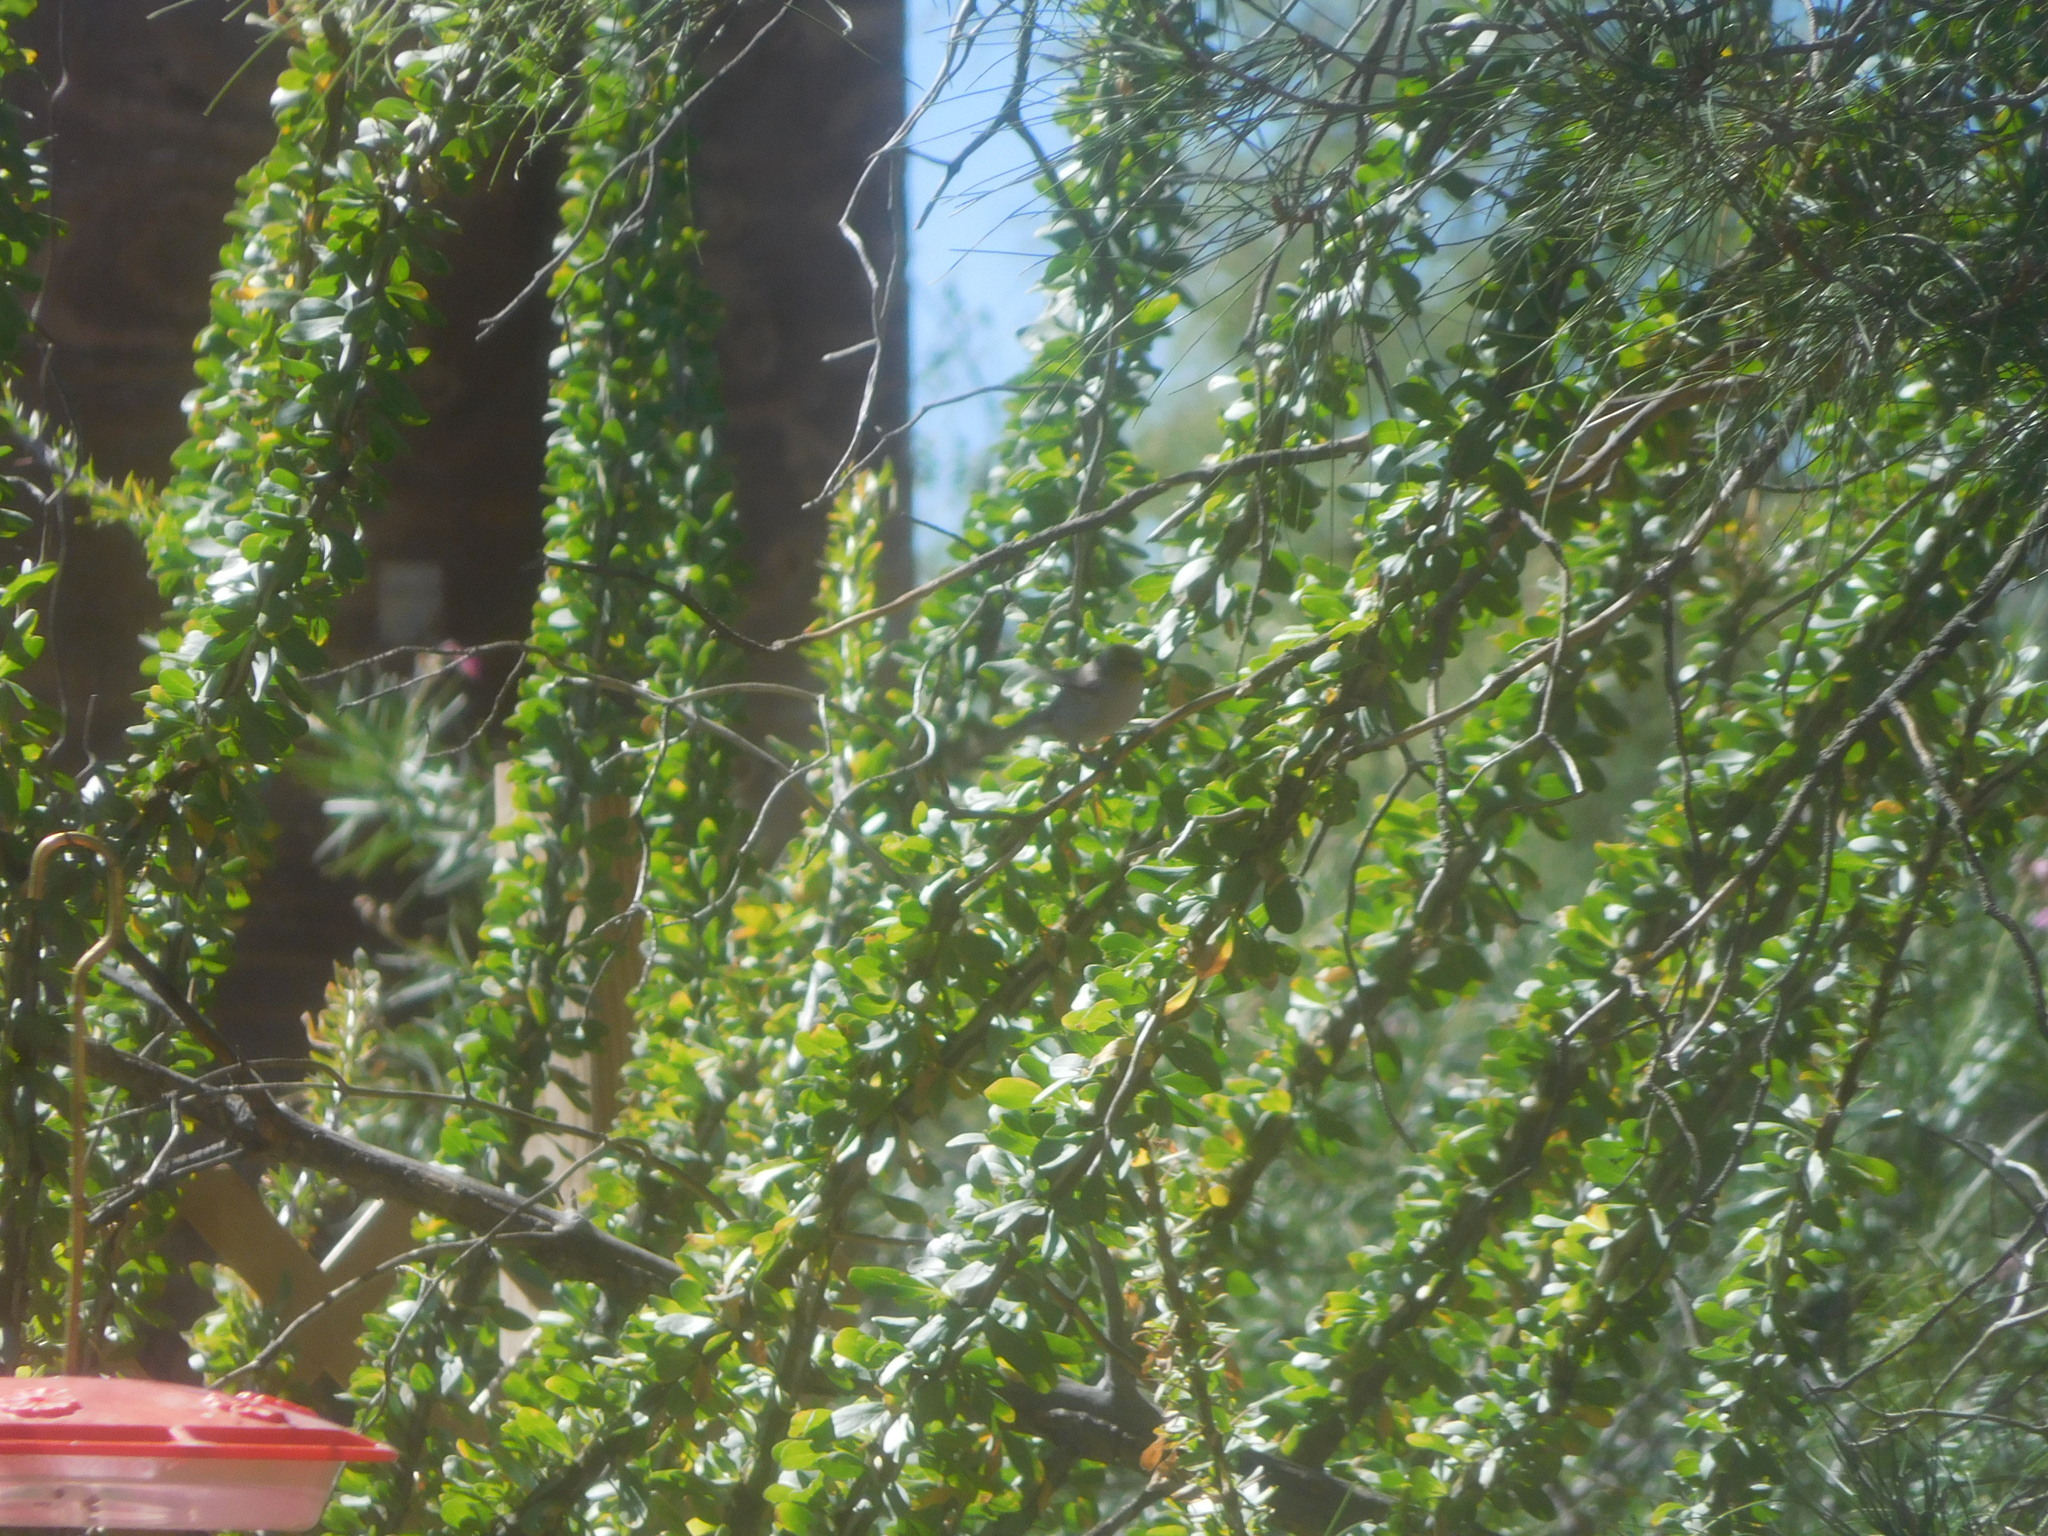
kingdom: Animalia
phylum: Chordata
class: Aves
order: Passeriformes
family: Remizidae
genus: Auriparus
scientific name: Auriparus flaviceps
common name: Verdin
